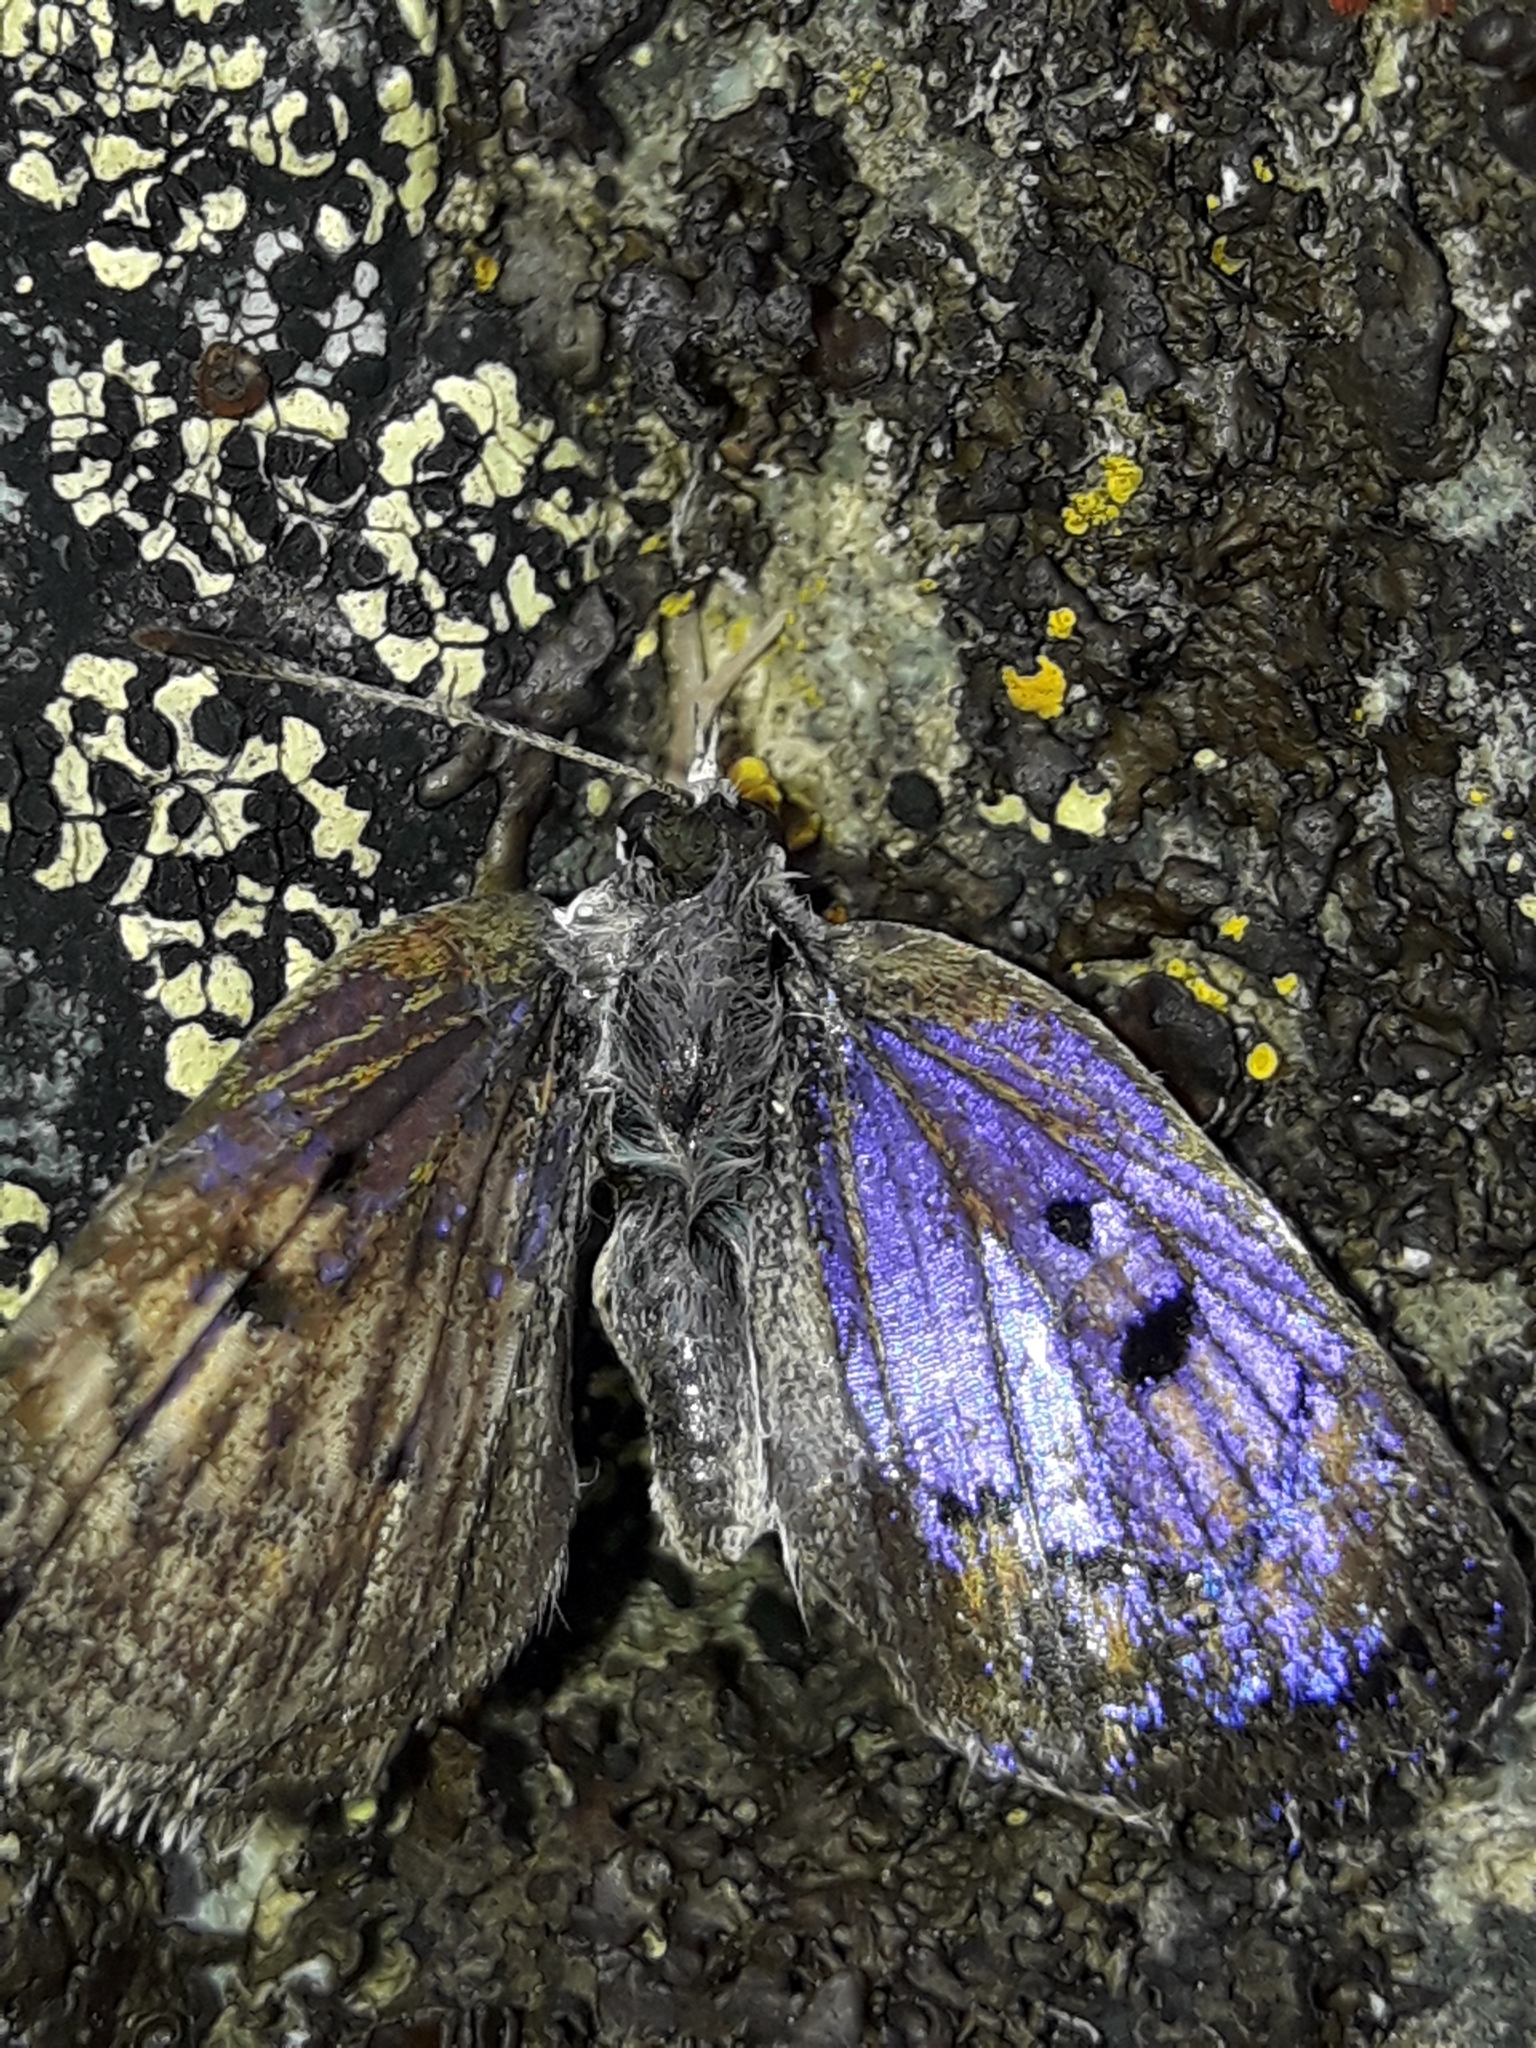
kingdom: Animalia
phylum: Arthropoda
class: Insecta
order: Lepidoptera
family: Lycaenidae
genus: Lycaena
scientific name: Lycaena tama
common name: Canterbury alpine boulder copper
